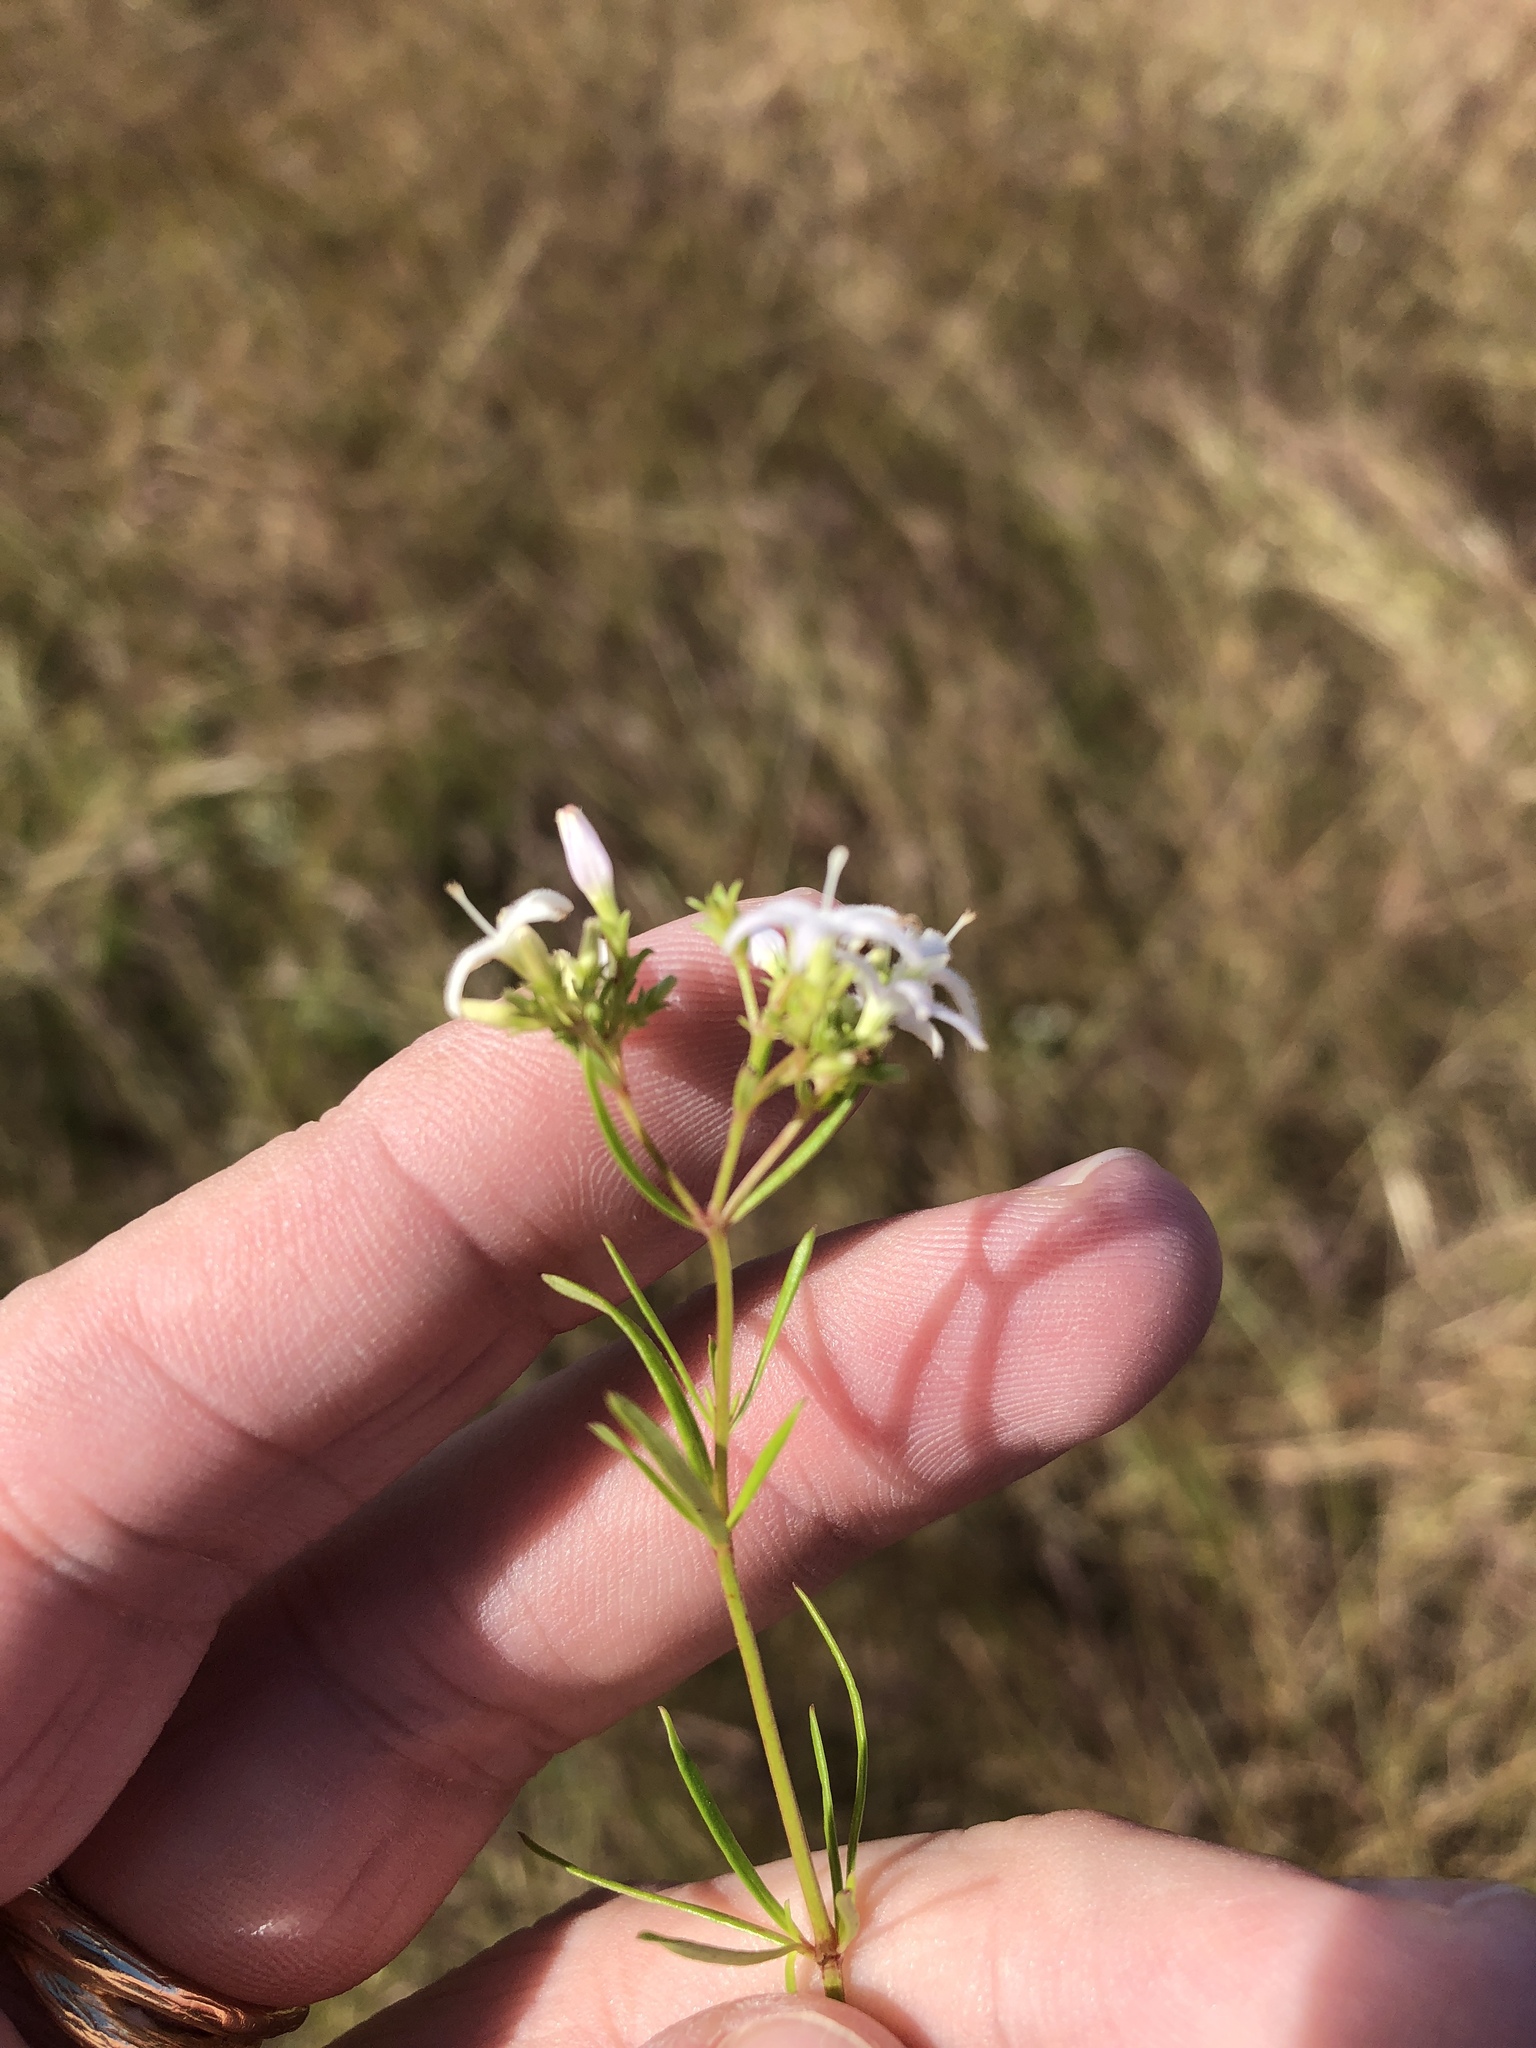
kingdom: Plantae
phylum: Tracheophyta
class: Magnoliopsida
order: Gentianales
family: Rubiaceae
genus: Stenaria
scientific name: Stenaria nigricans
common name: Diamondflowers
